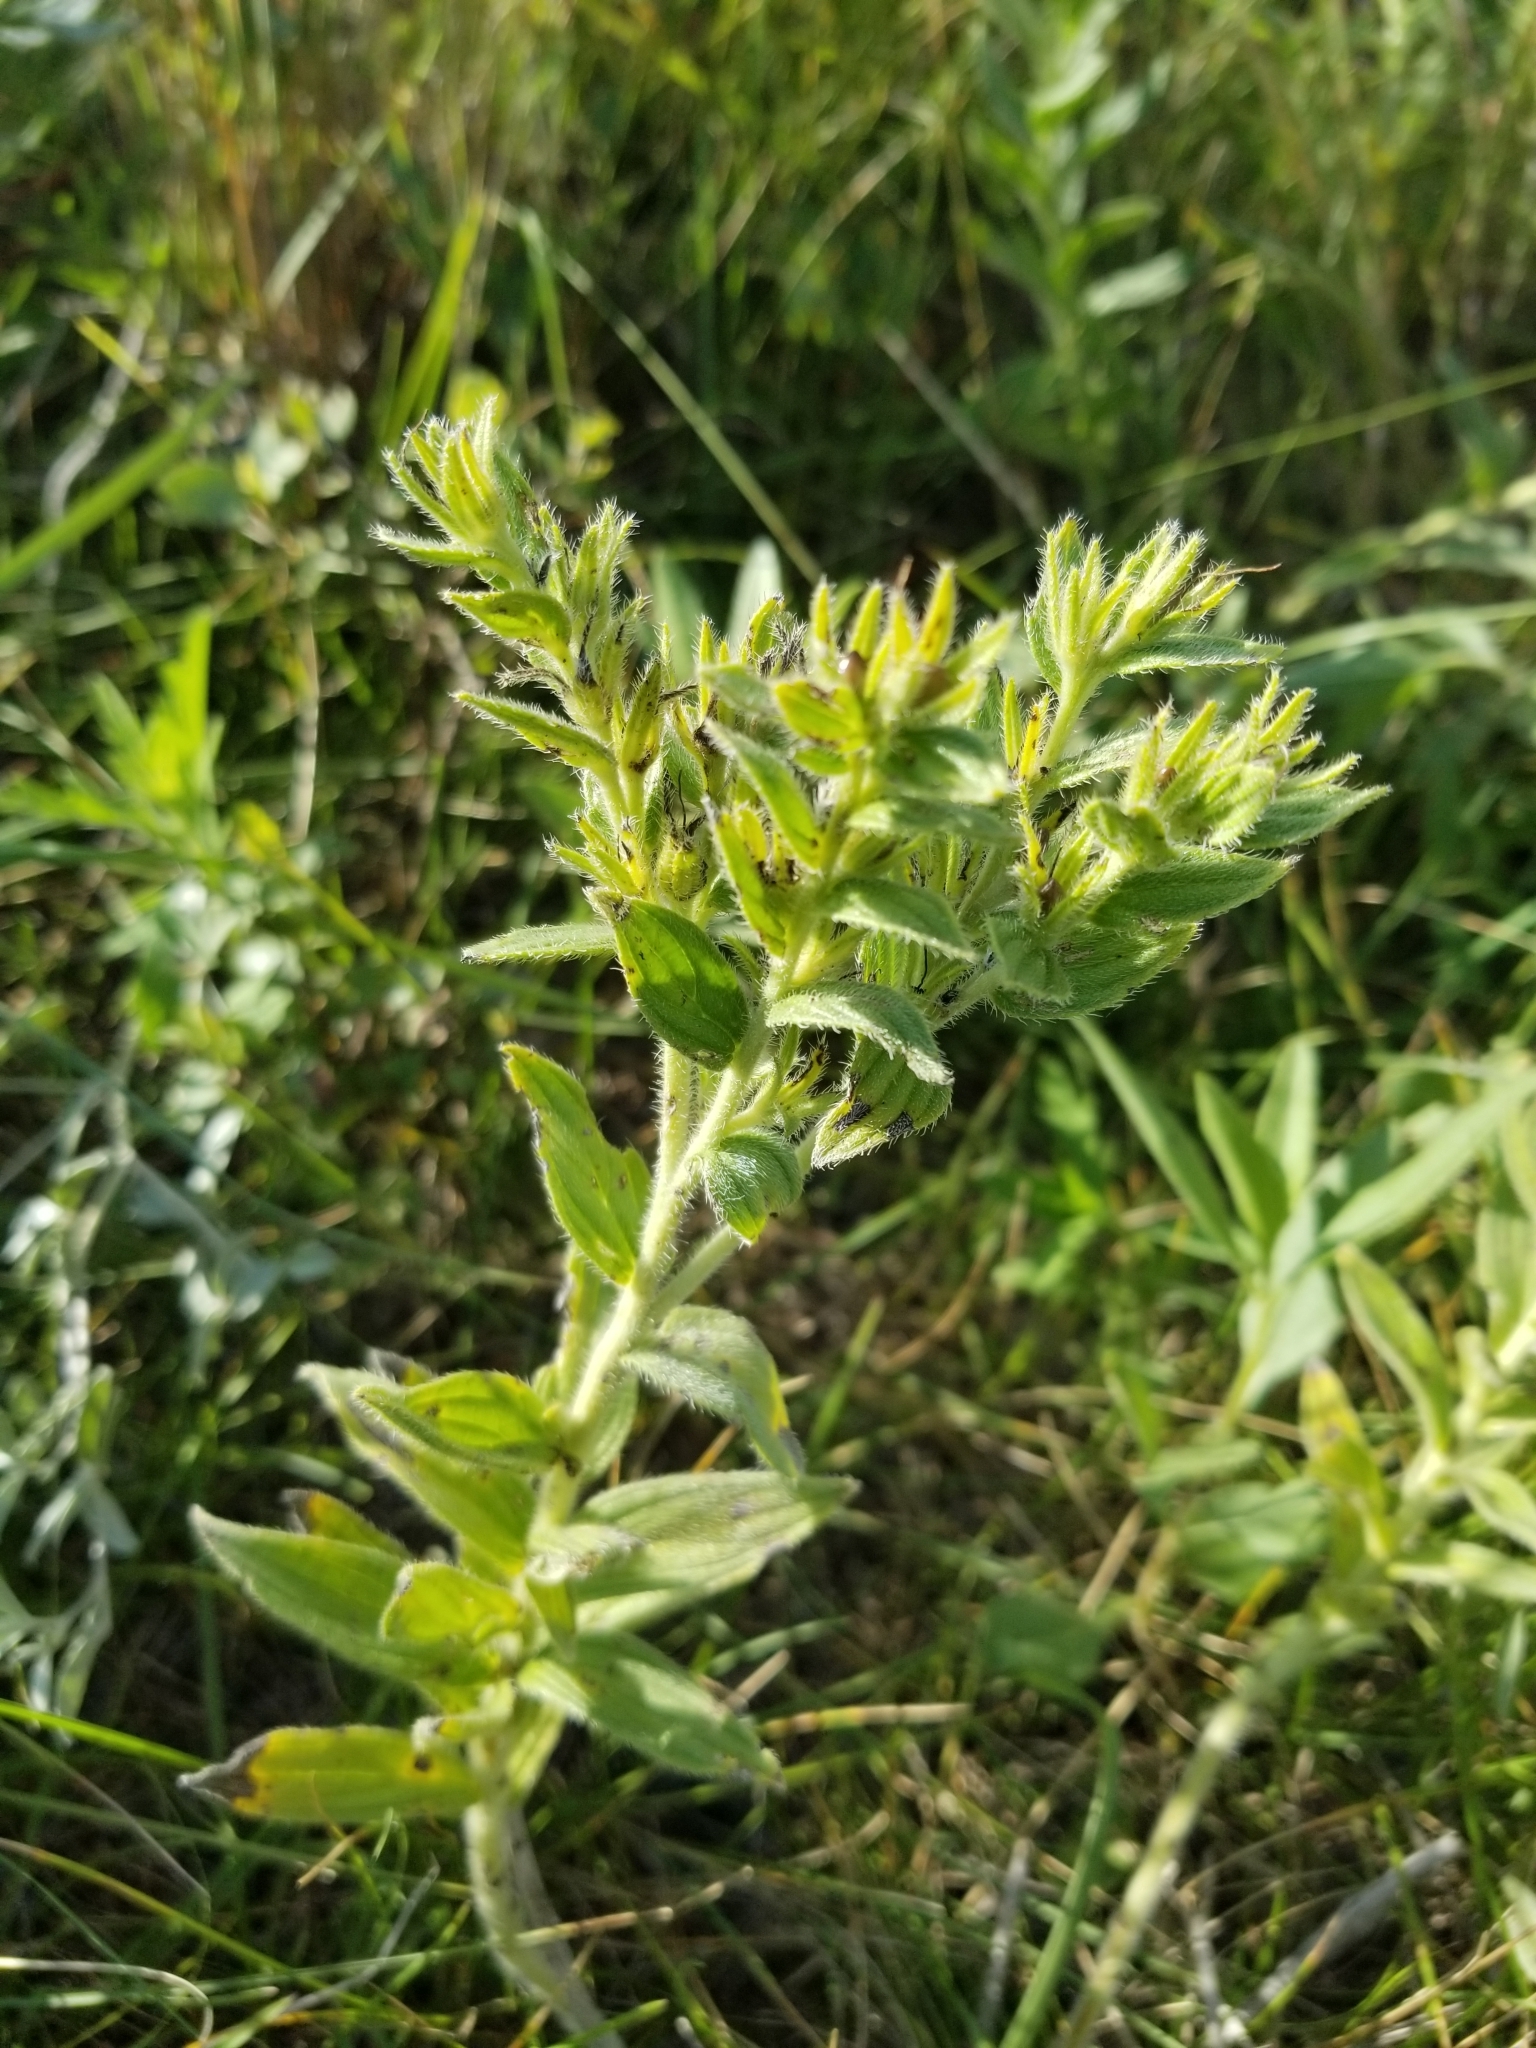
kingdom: Plantae
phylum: Tracheophyta
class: Magnoliopsida
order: Boraginales
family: Boraginaceae
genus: Lithospermum
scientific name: Lithospermum occidentale
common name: Western false gromwell
